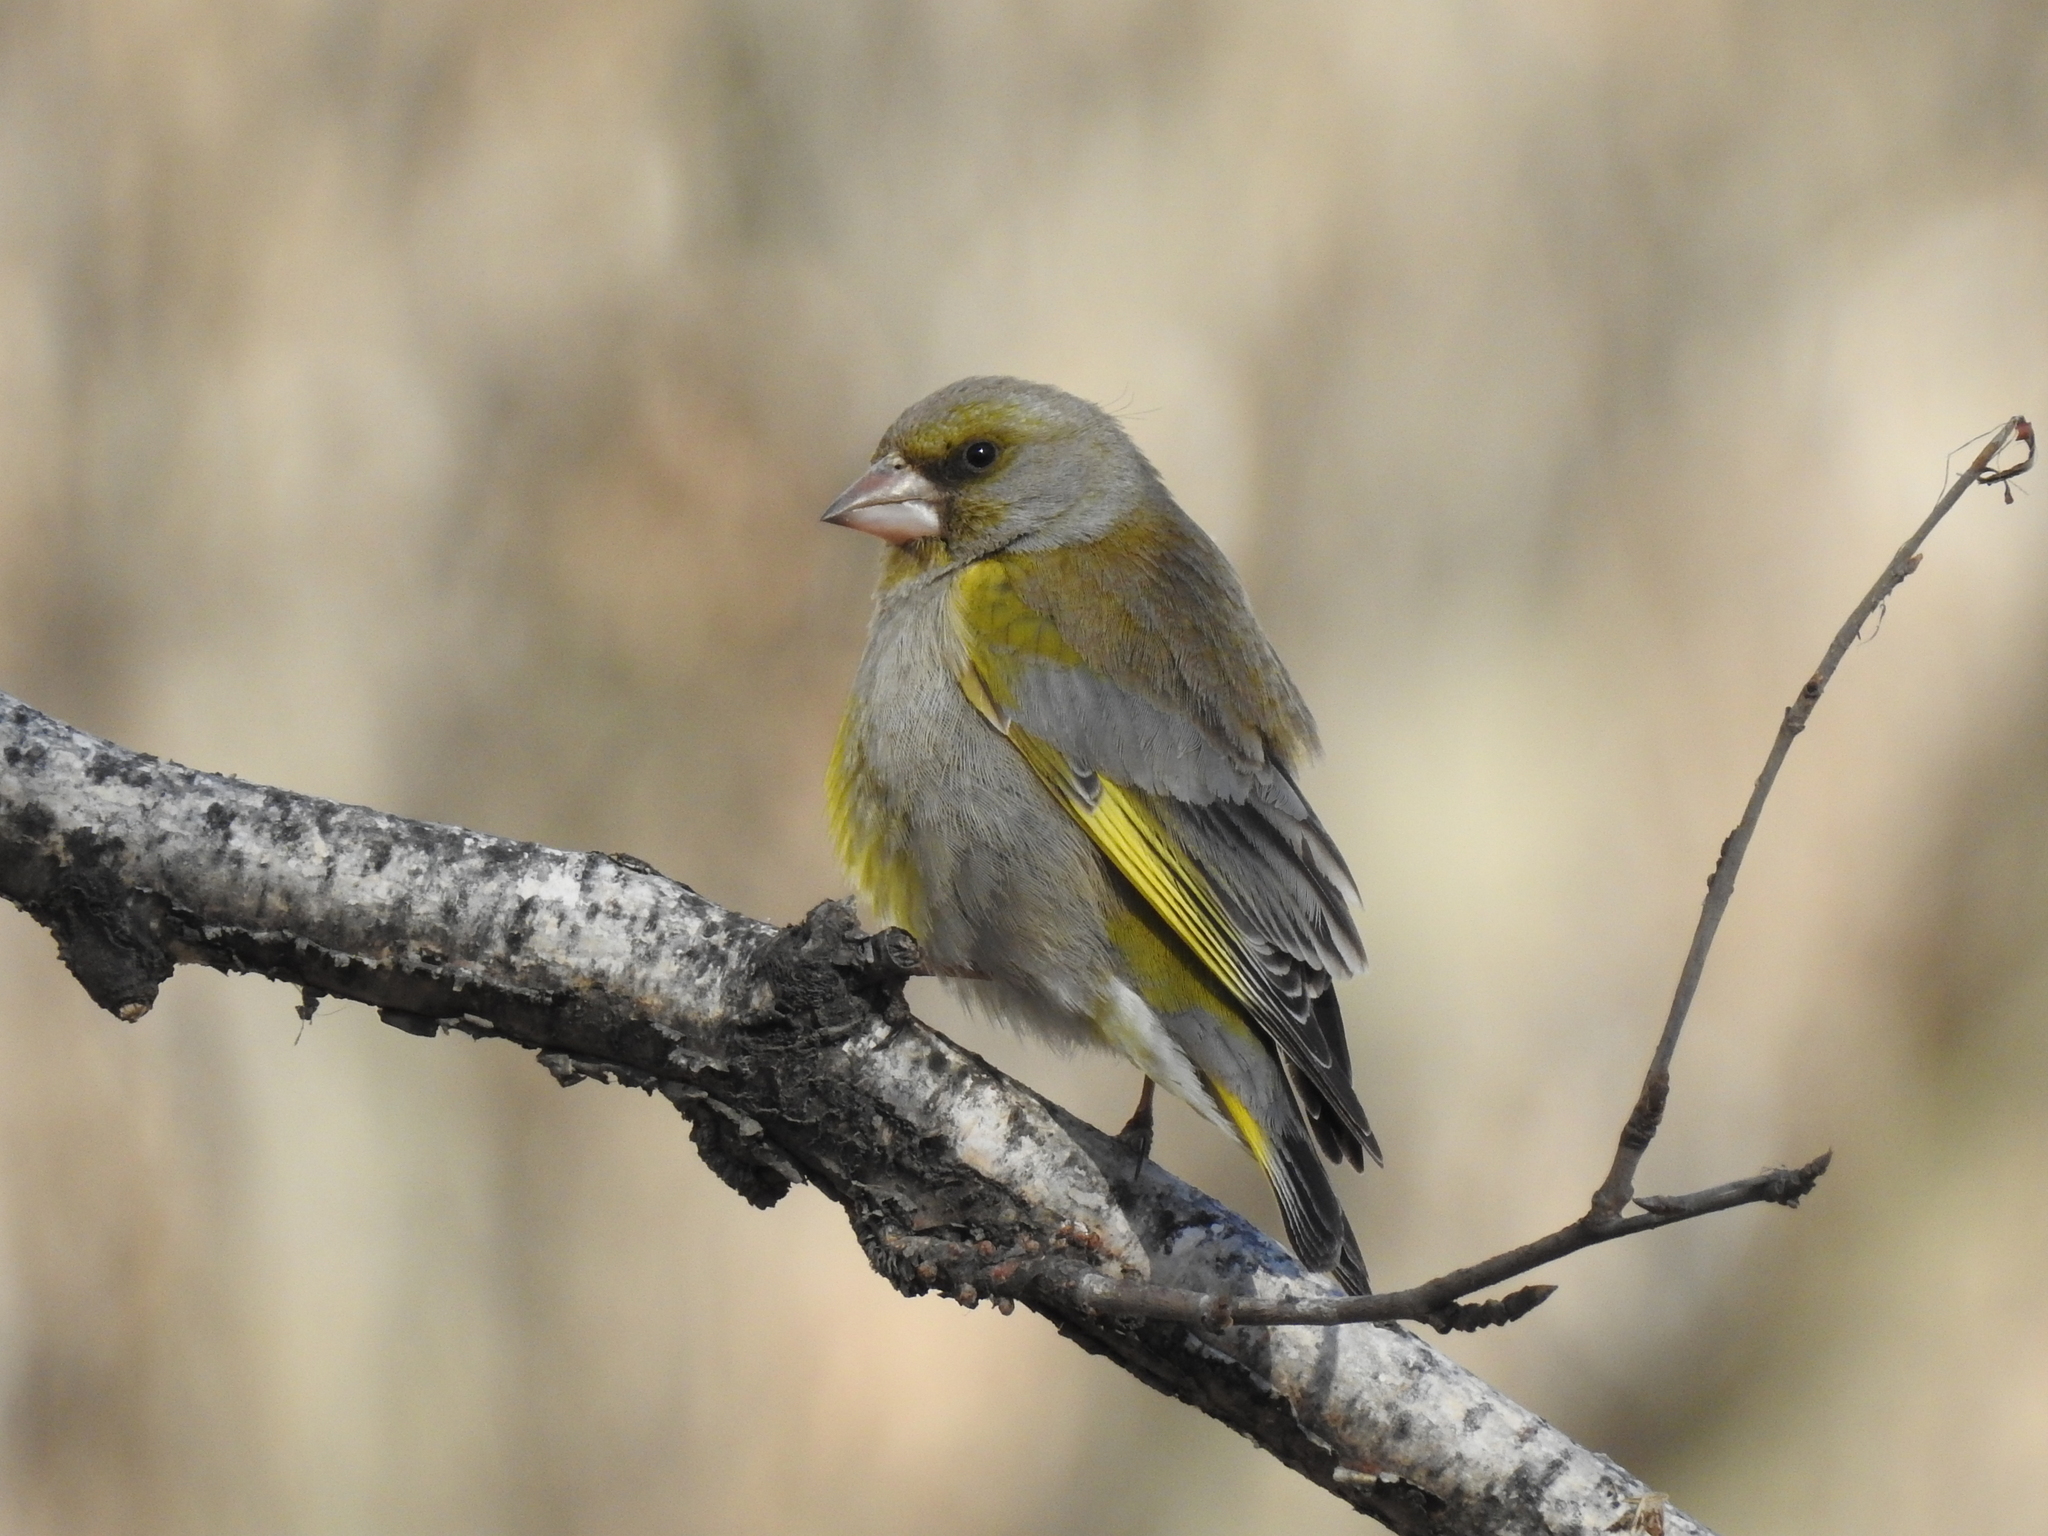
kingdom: Plantae
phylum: Tracheophyta
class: Liliopsida
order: Poales
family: Poaceae
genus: Chloris
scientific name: Chloris chloris
